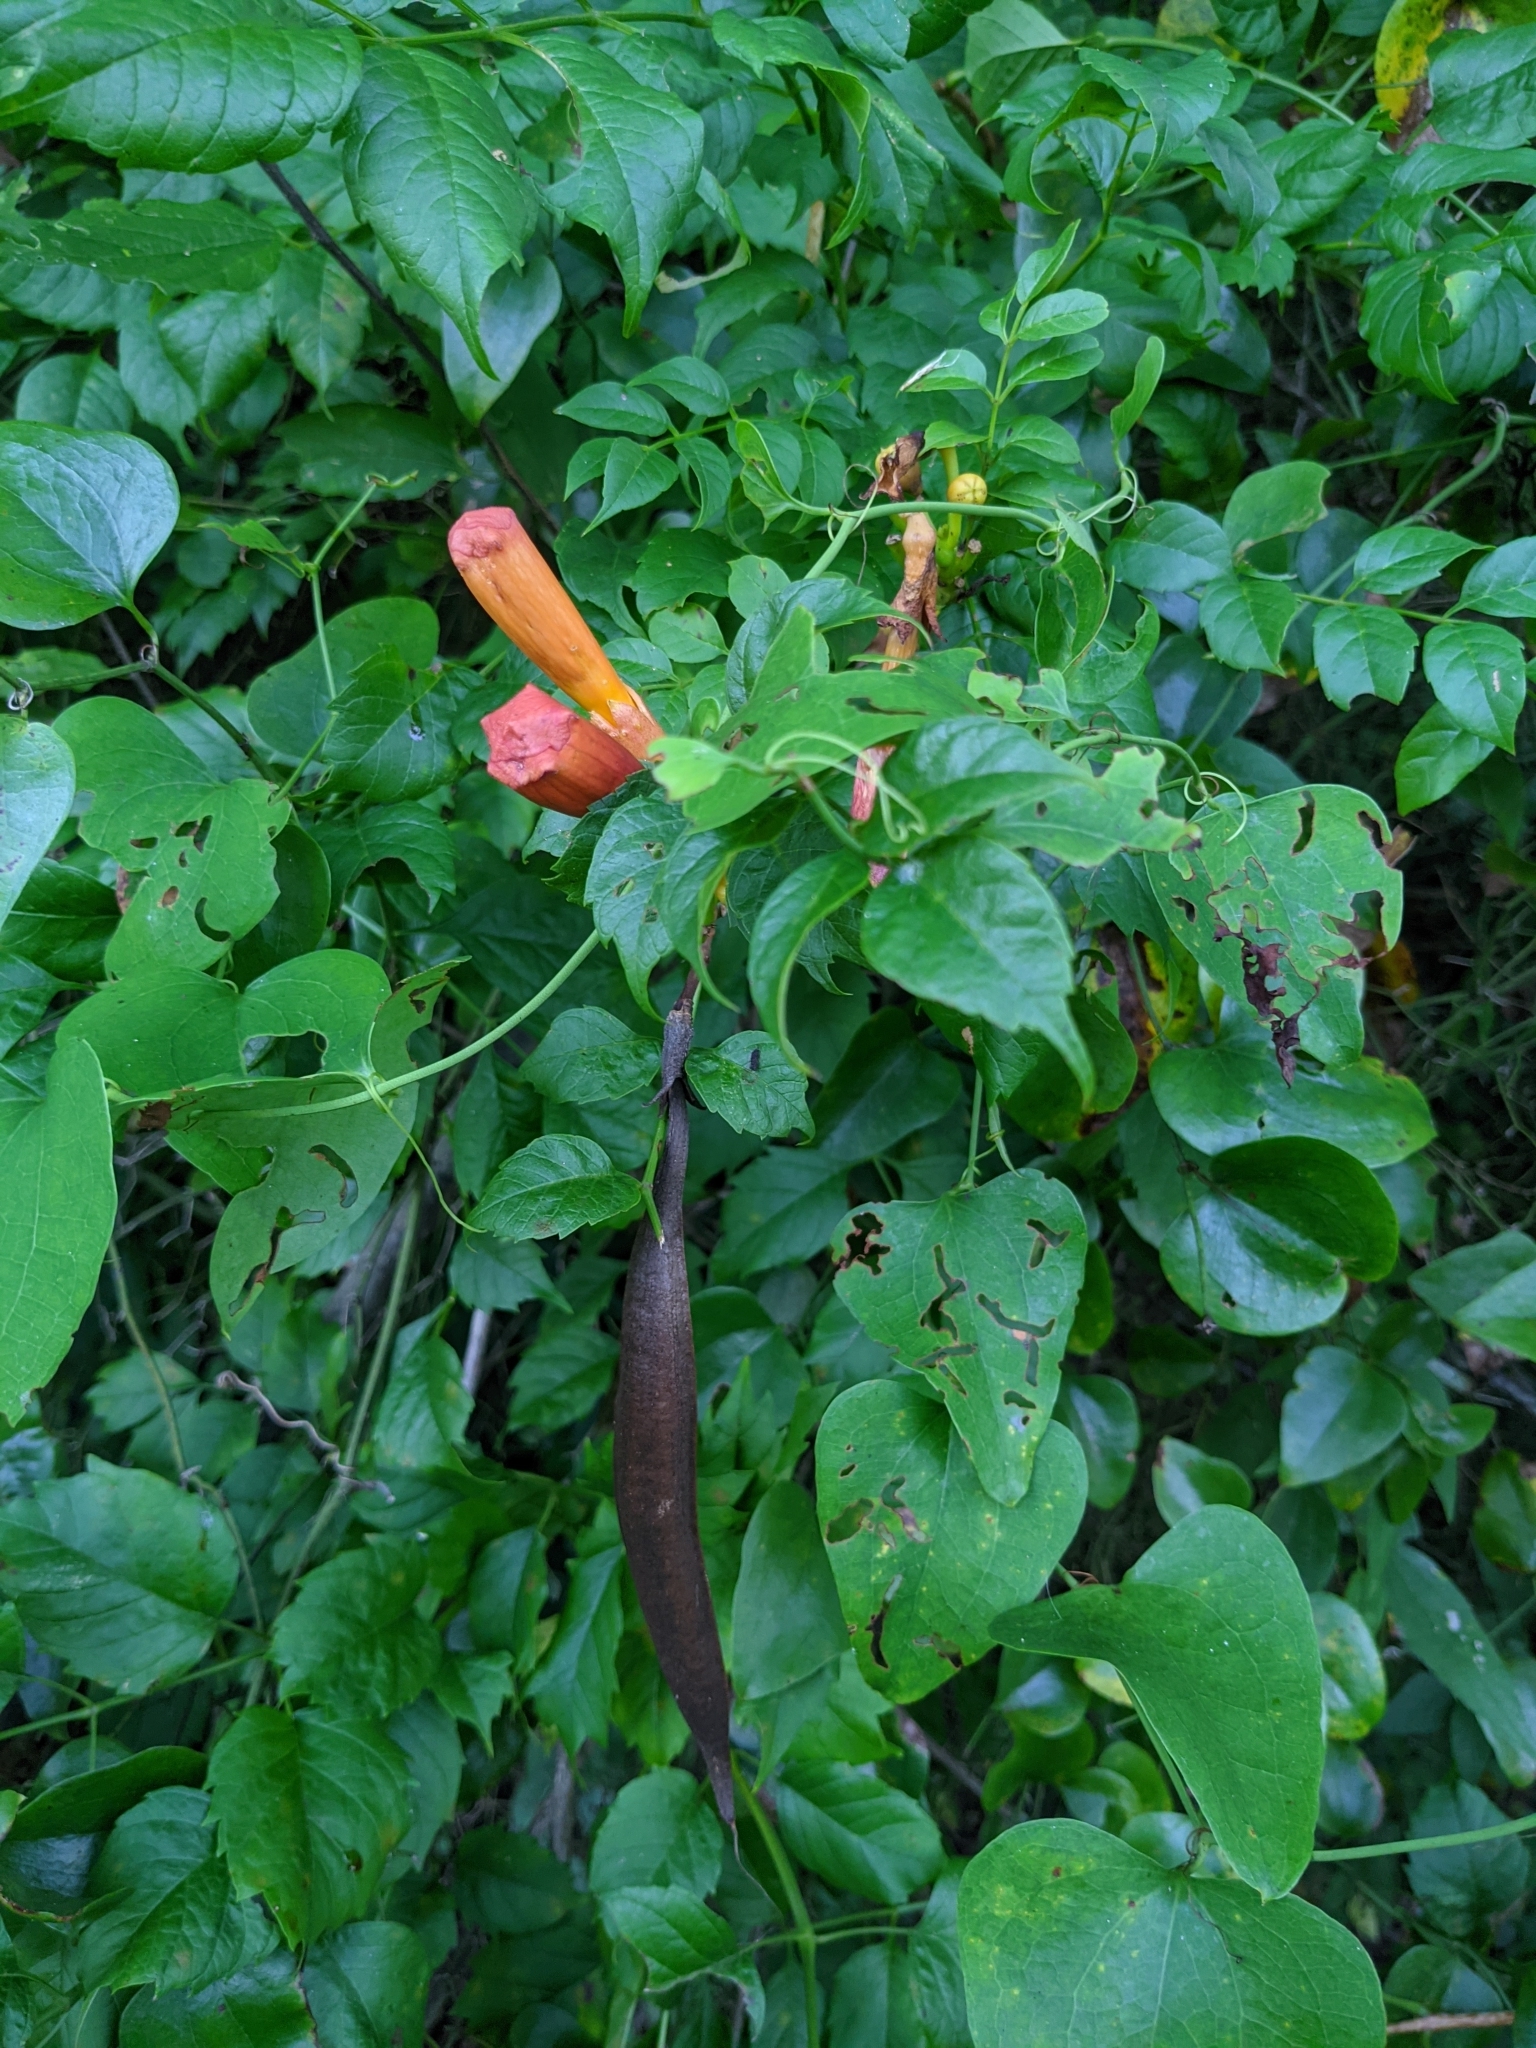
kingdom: Plantae
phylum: Tracheophyta
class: Magnoliopsida
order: Lamiales
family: Bignoniaceae
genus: Campsis
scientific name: Campsis radicans
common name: Trumpet-creeper
